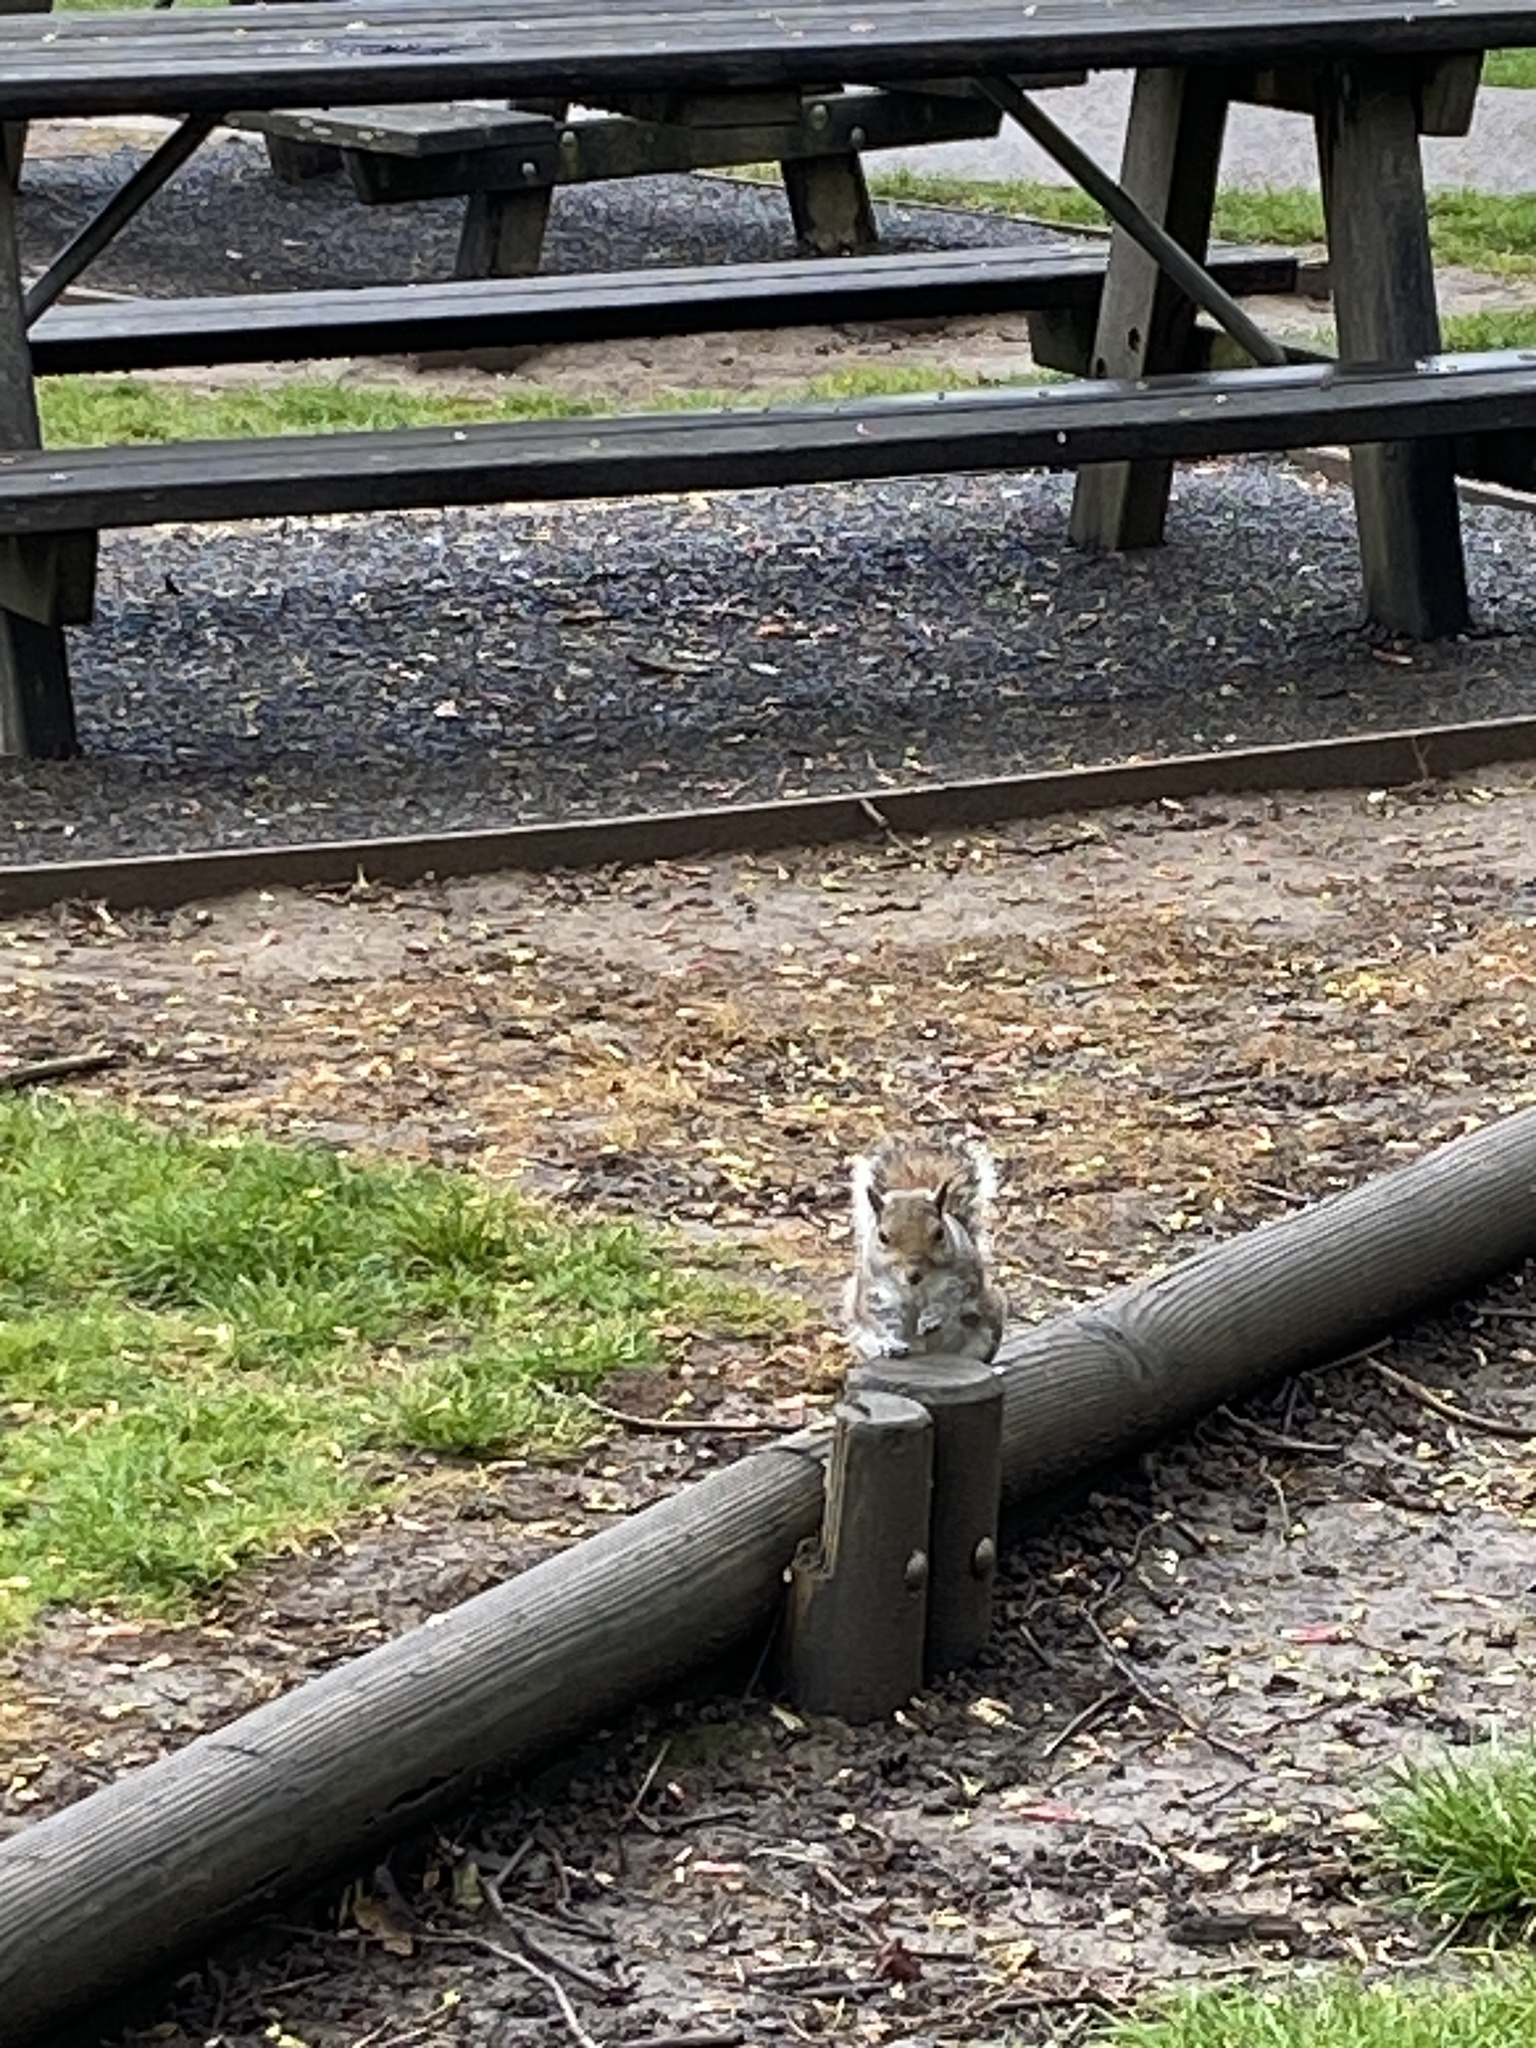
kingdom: Animalia
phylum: Chordata
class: Mammalia
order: Rodentia
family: Sciuridae
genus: Sciurus
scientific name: Sciurus carolinensis
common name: Eastern gray squirrel
